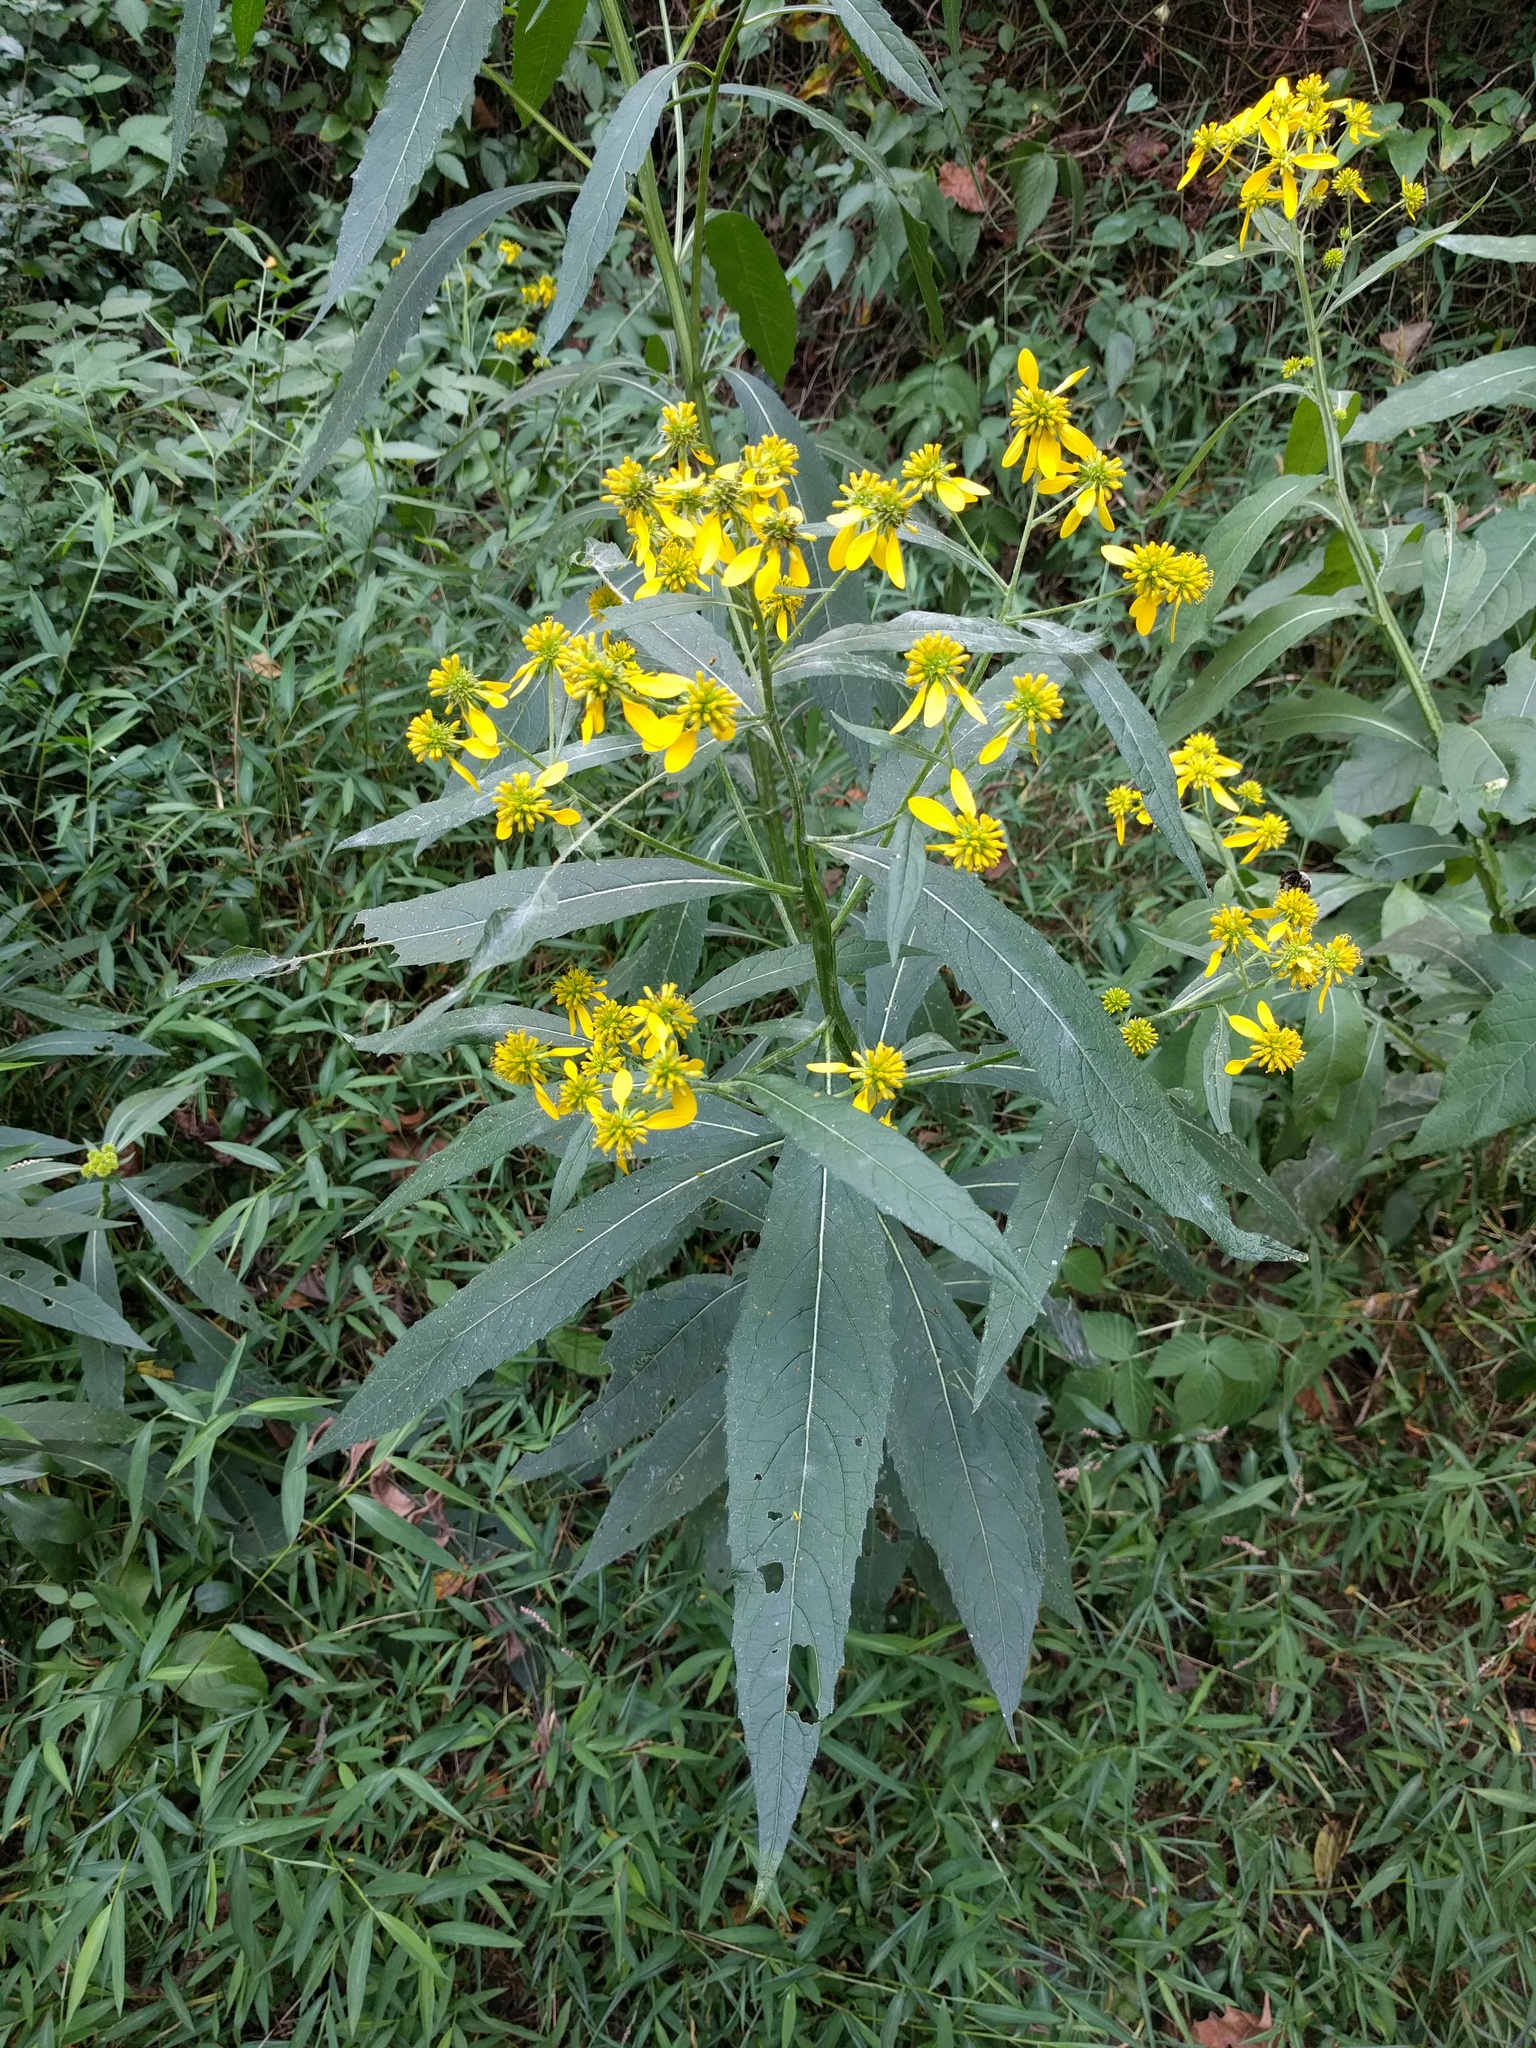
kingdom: Plantae
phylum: Tracheophyta
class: Magnoliopsida
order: Asterales
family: Asteraceae
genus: Verbesina
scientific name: Verbesina alternifolia
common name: Wingstem
